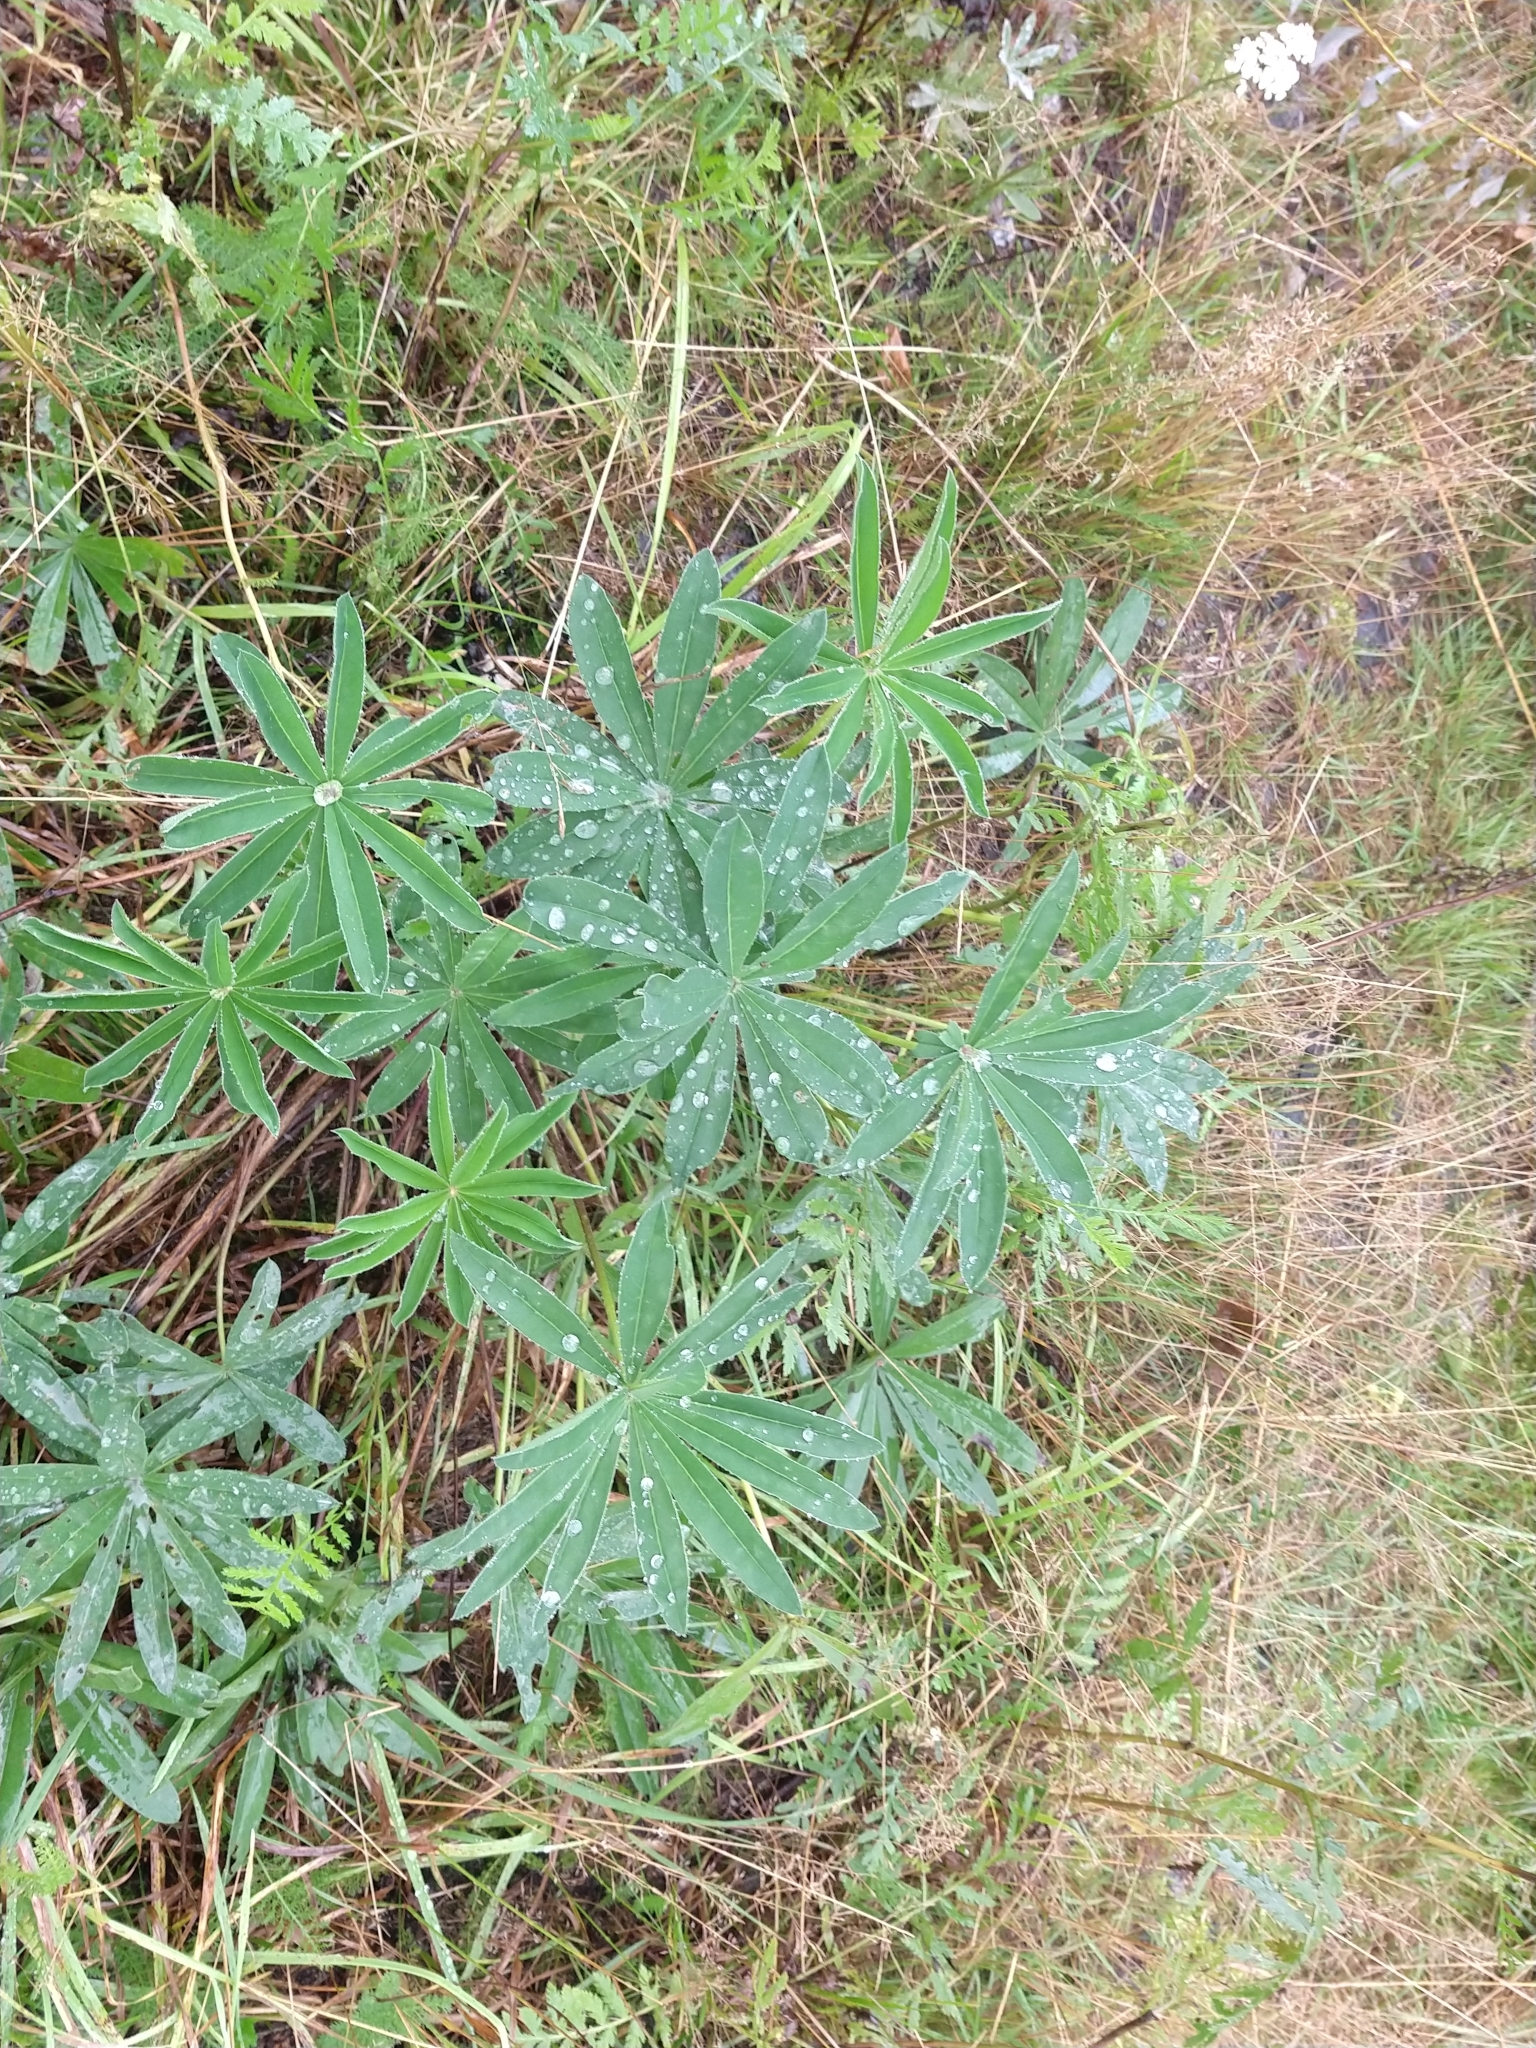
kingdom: Plantae
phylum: Tracheophyta
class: Magnoliopsida
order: Fabales
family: Fabaceae
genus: Lupinus
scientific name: Lupinus polyphyllus
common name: Garden lupin
